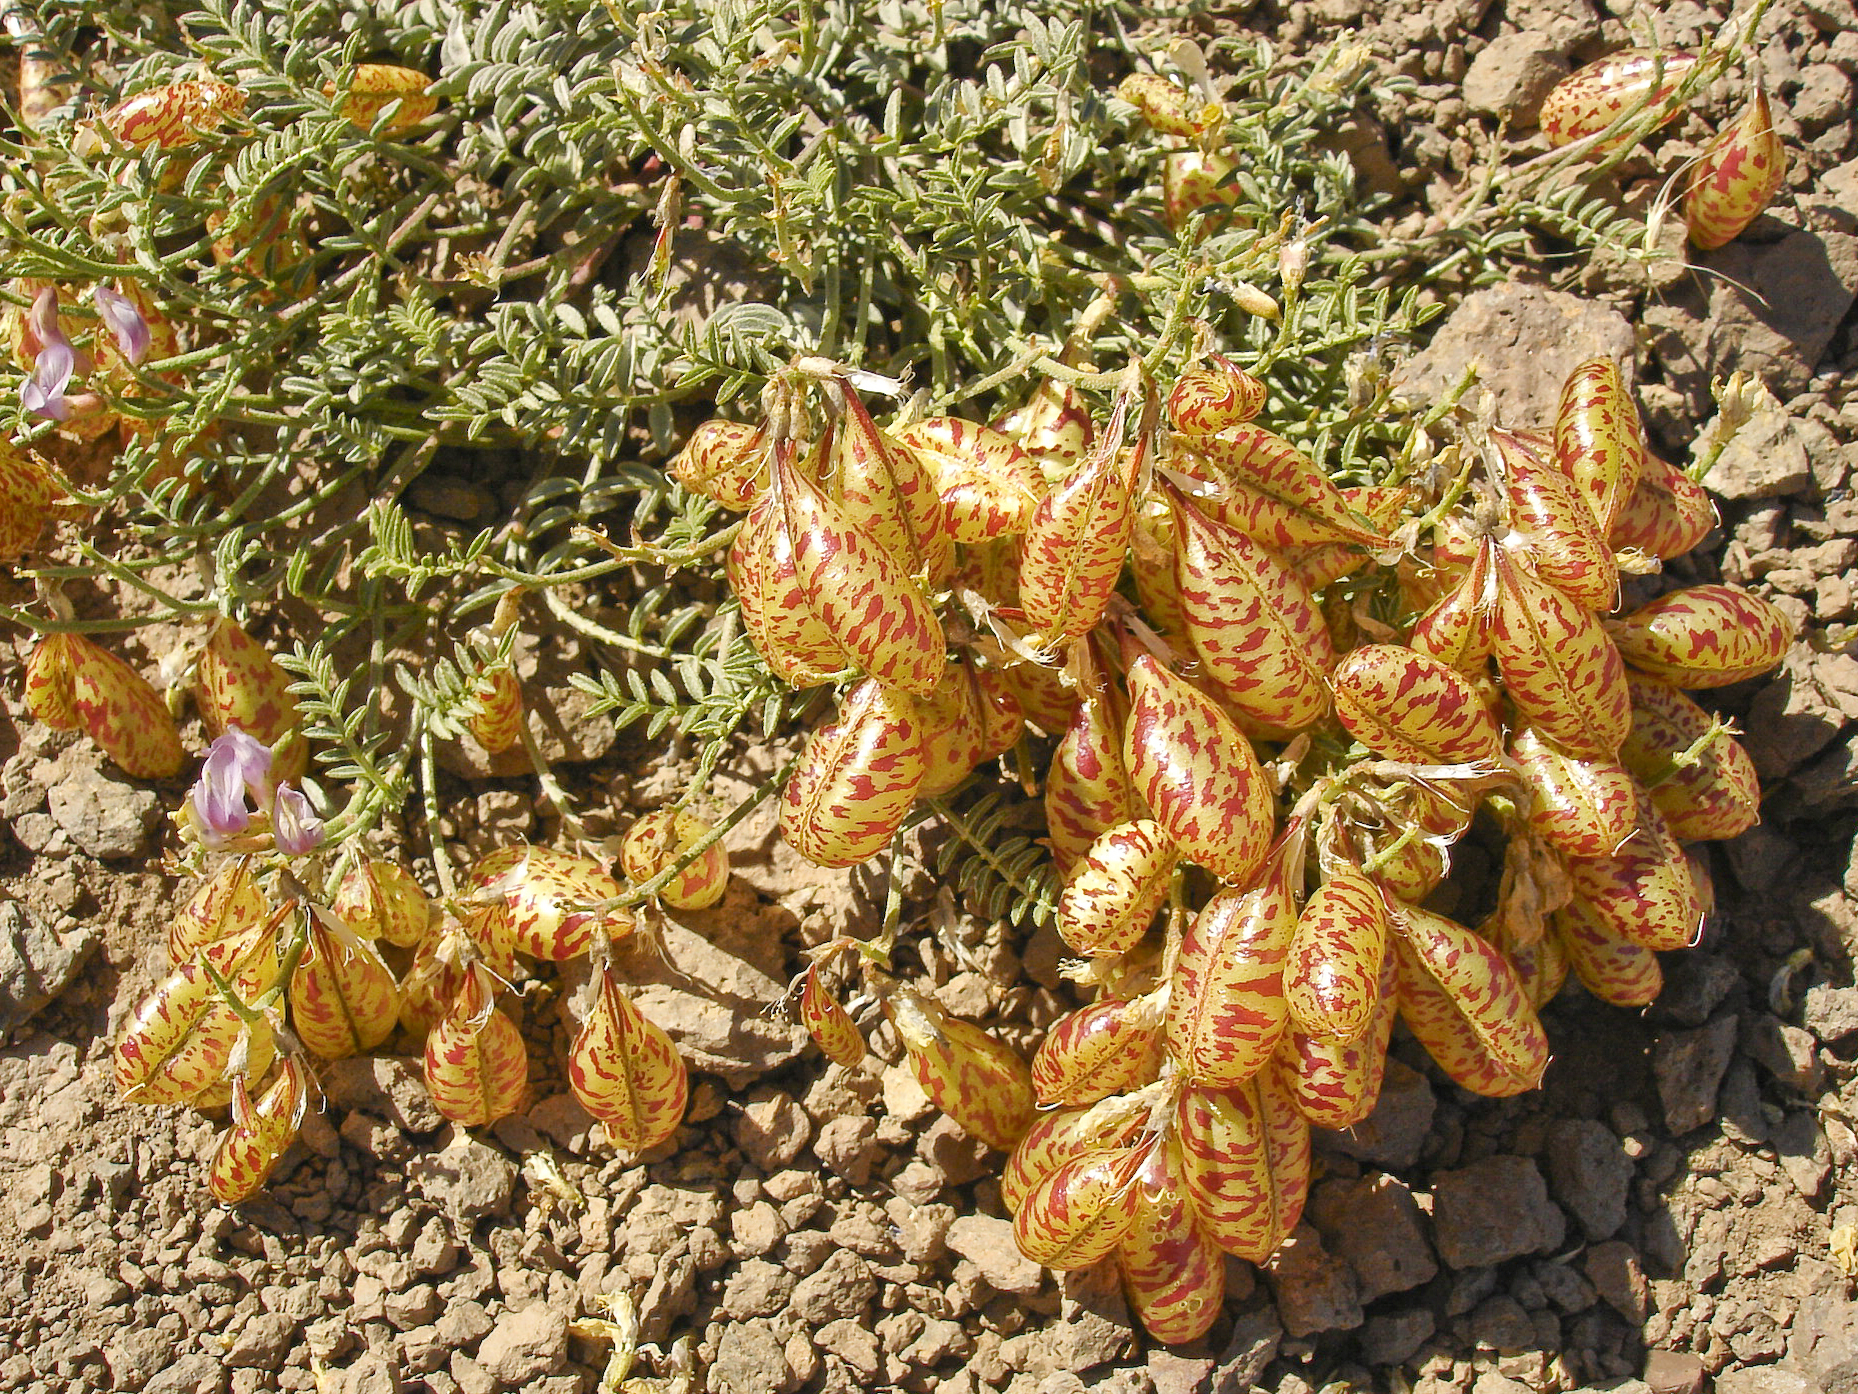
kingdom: Plantae
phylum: Tracheophyta
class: Magnoliopsida
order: Fabales
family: Fabaceae
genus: Astragalus
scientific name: Astragalus whitneyi
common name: Balloonpod milkvetch
